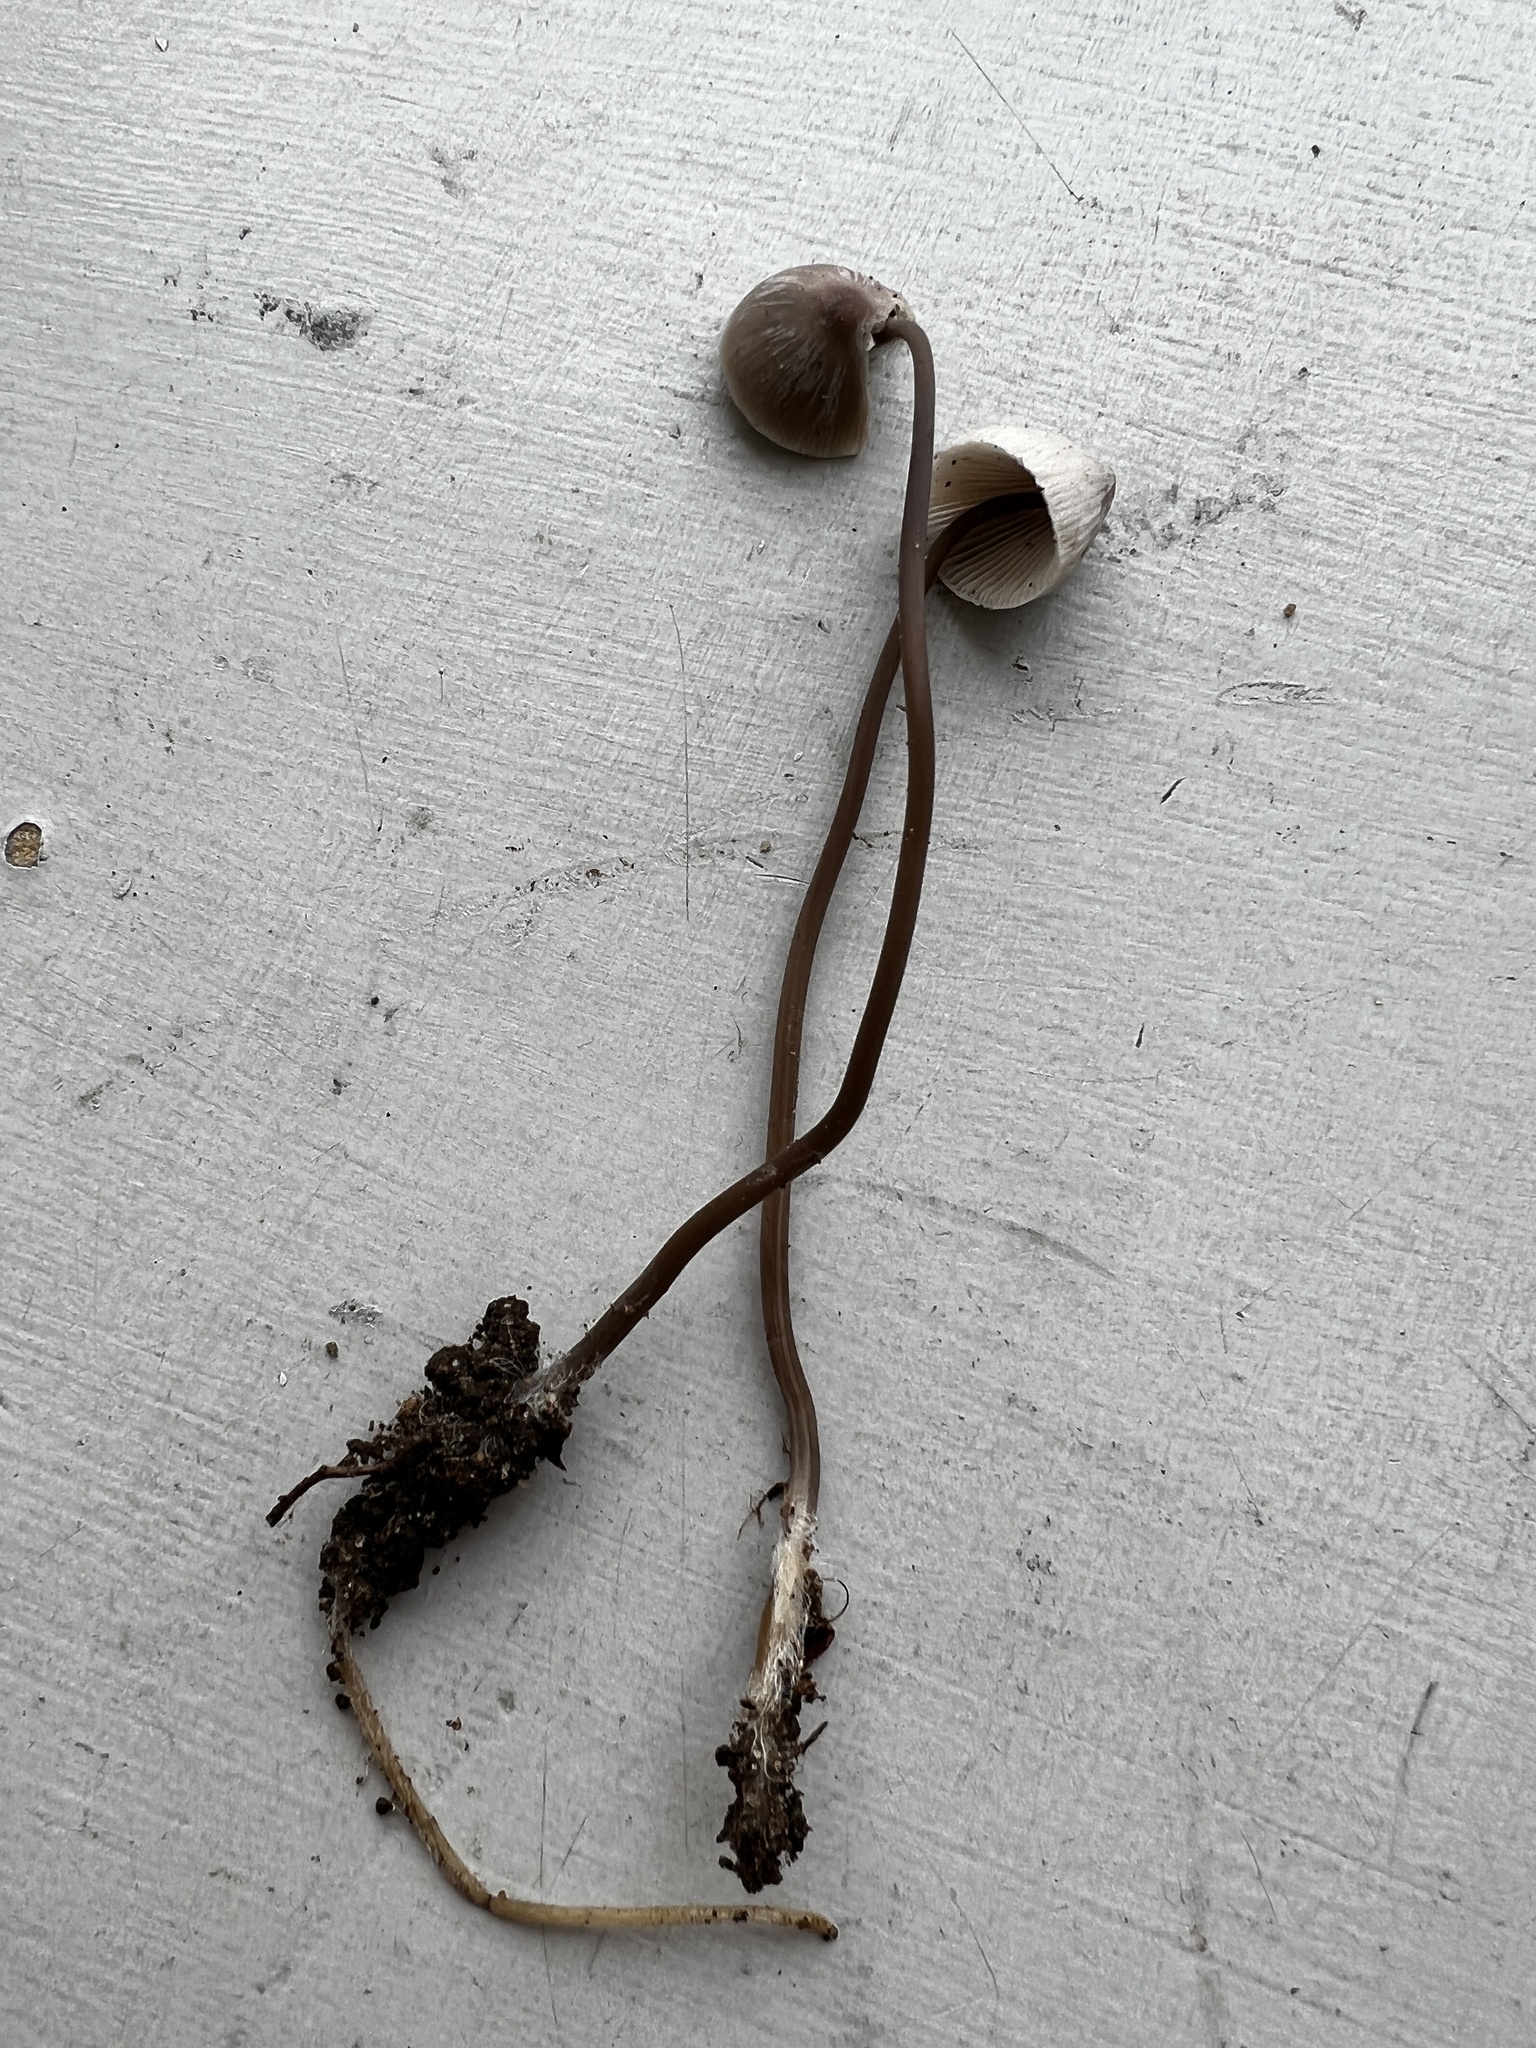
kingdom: Fungi
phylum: Basidiomycota
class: Agaricomycetes
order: Agaricales
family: Mycenaceae
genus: Mycena
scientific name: Mycena filopes
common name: Iodine bonnet
